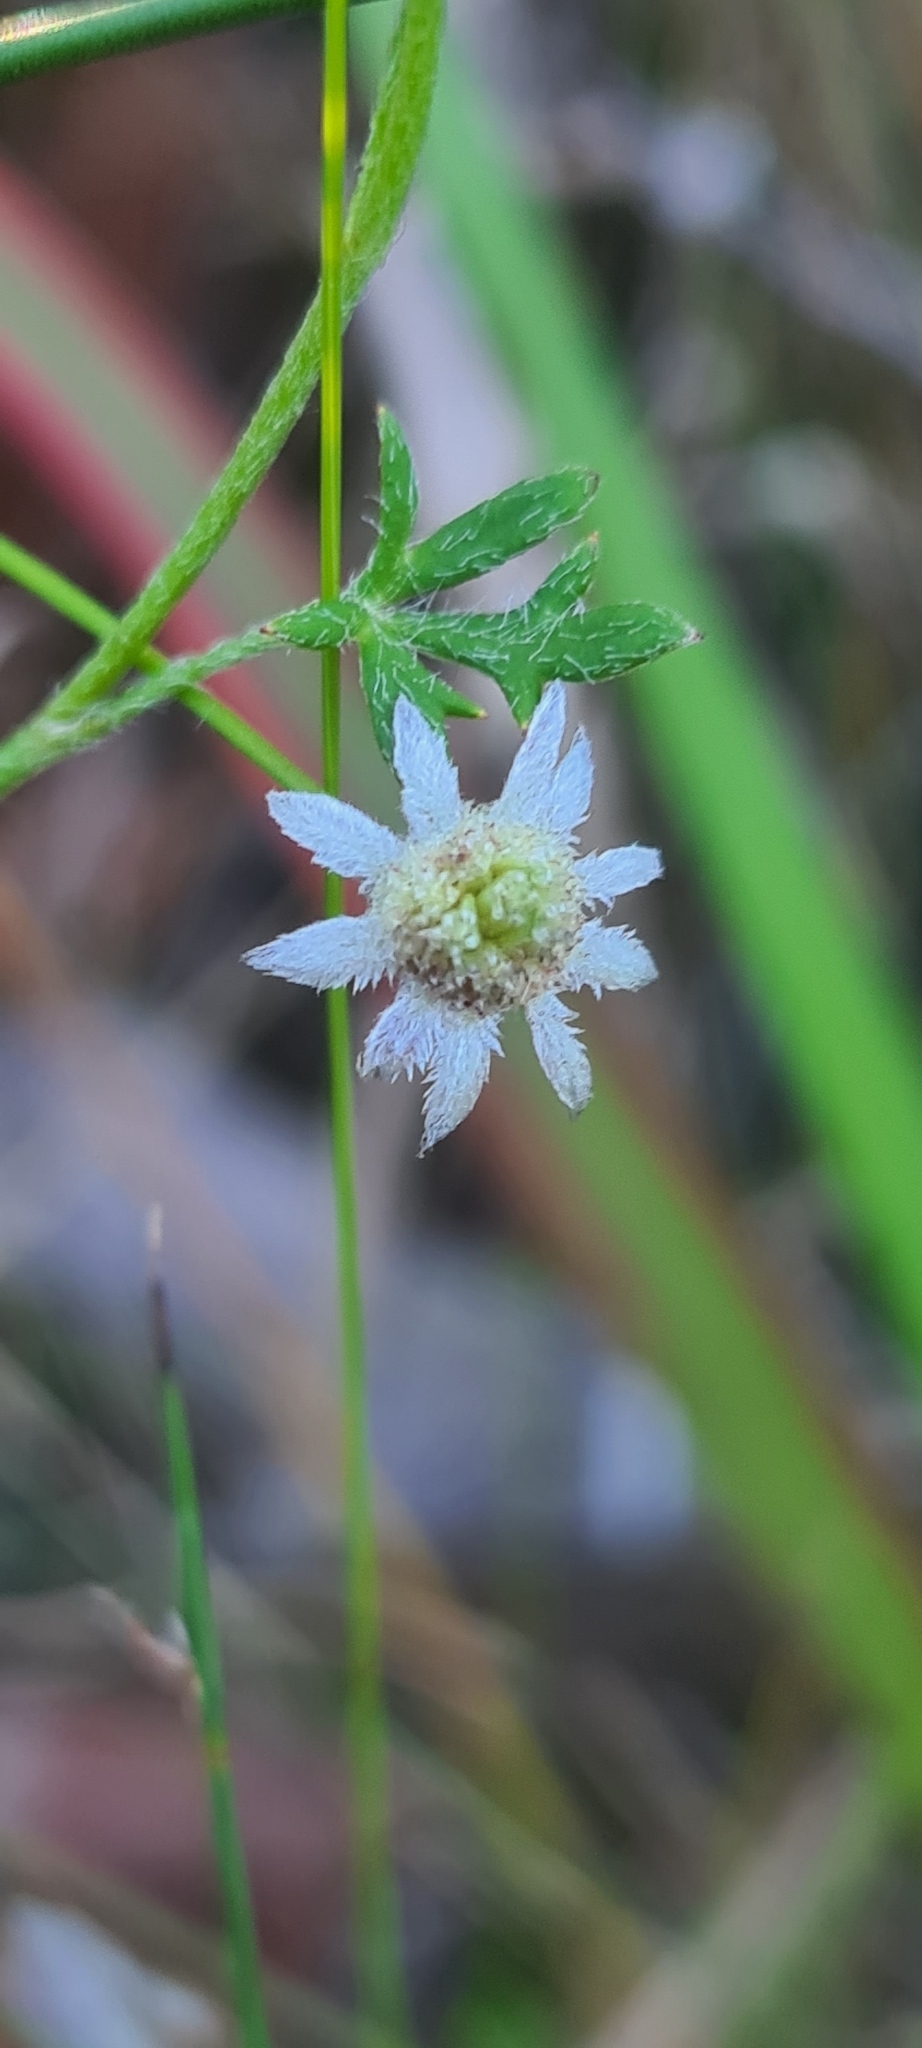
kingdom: Plantae
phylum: Tracheophyta
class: Magnoliopsida
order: Apiales
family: Apiaceae
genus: Actinotus
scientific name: Actinotus minor
